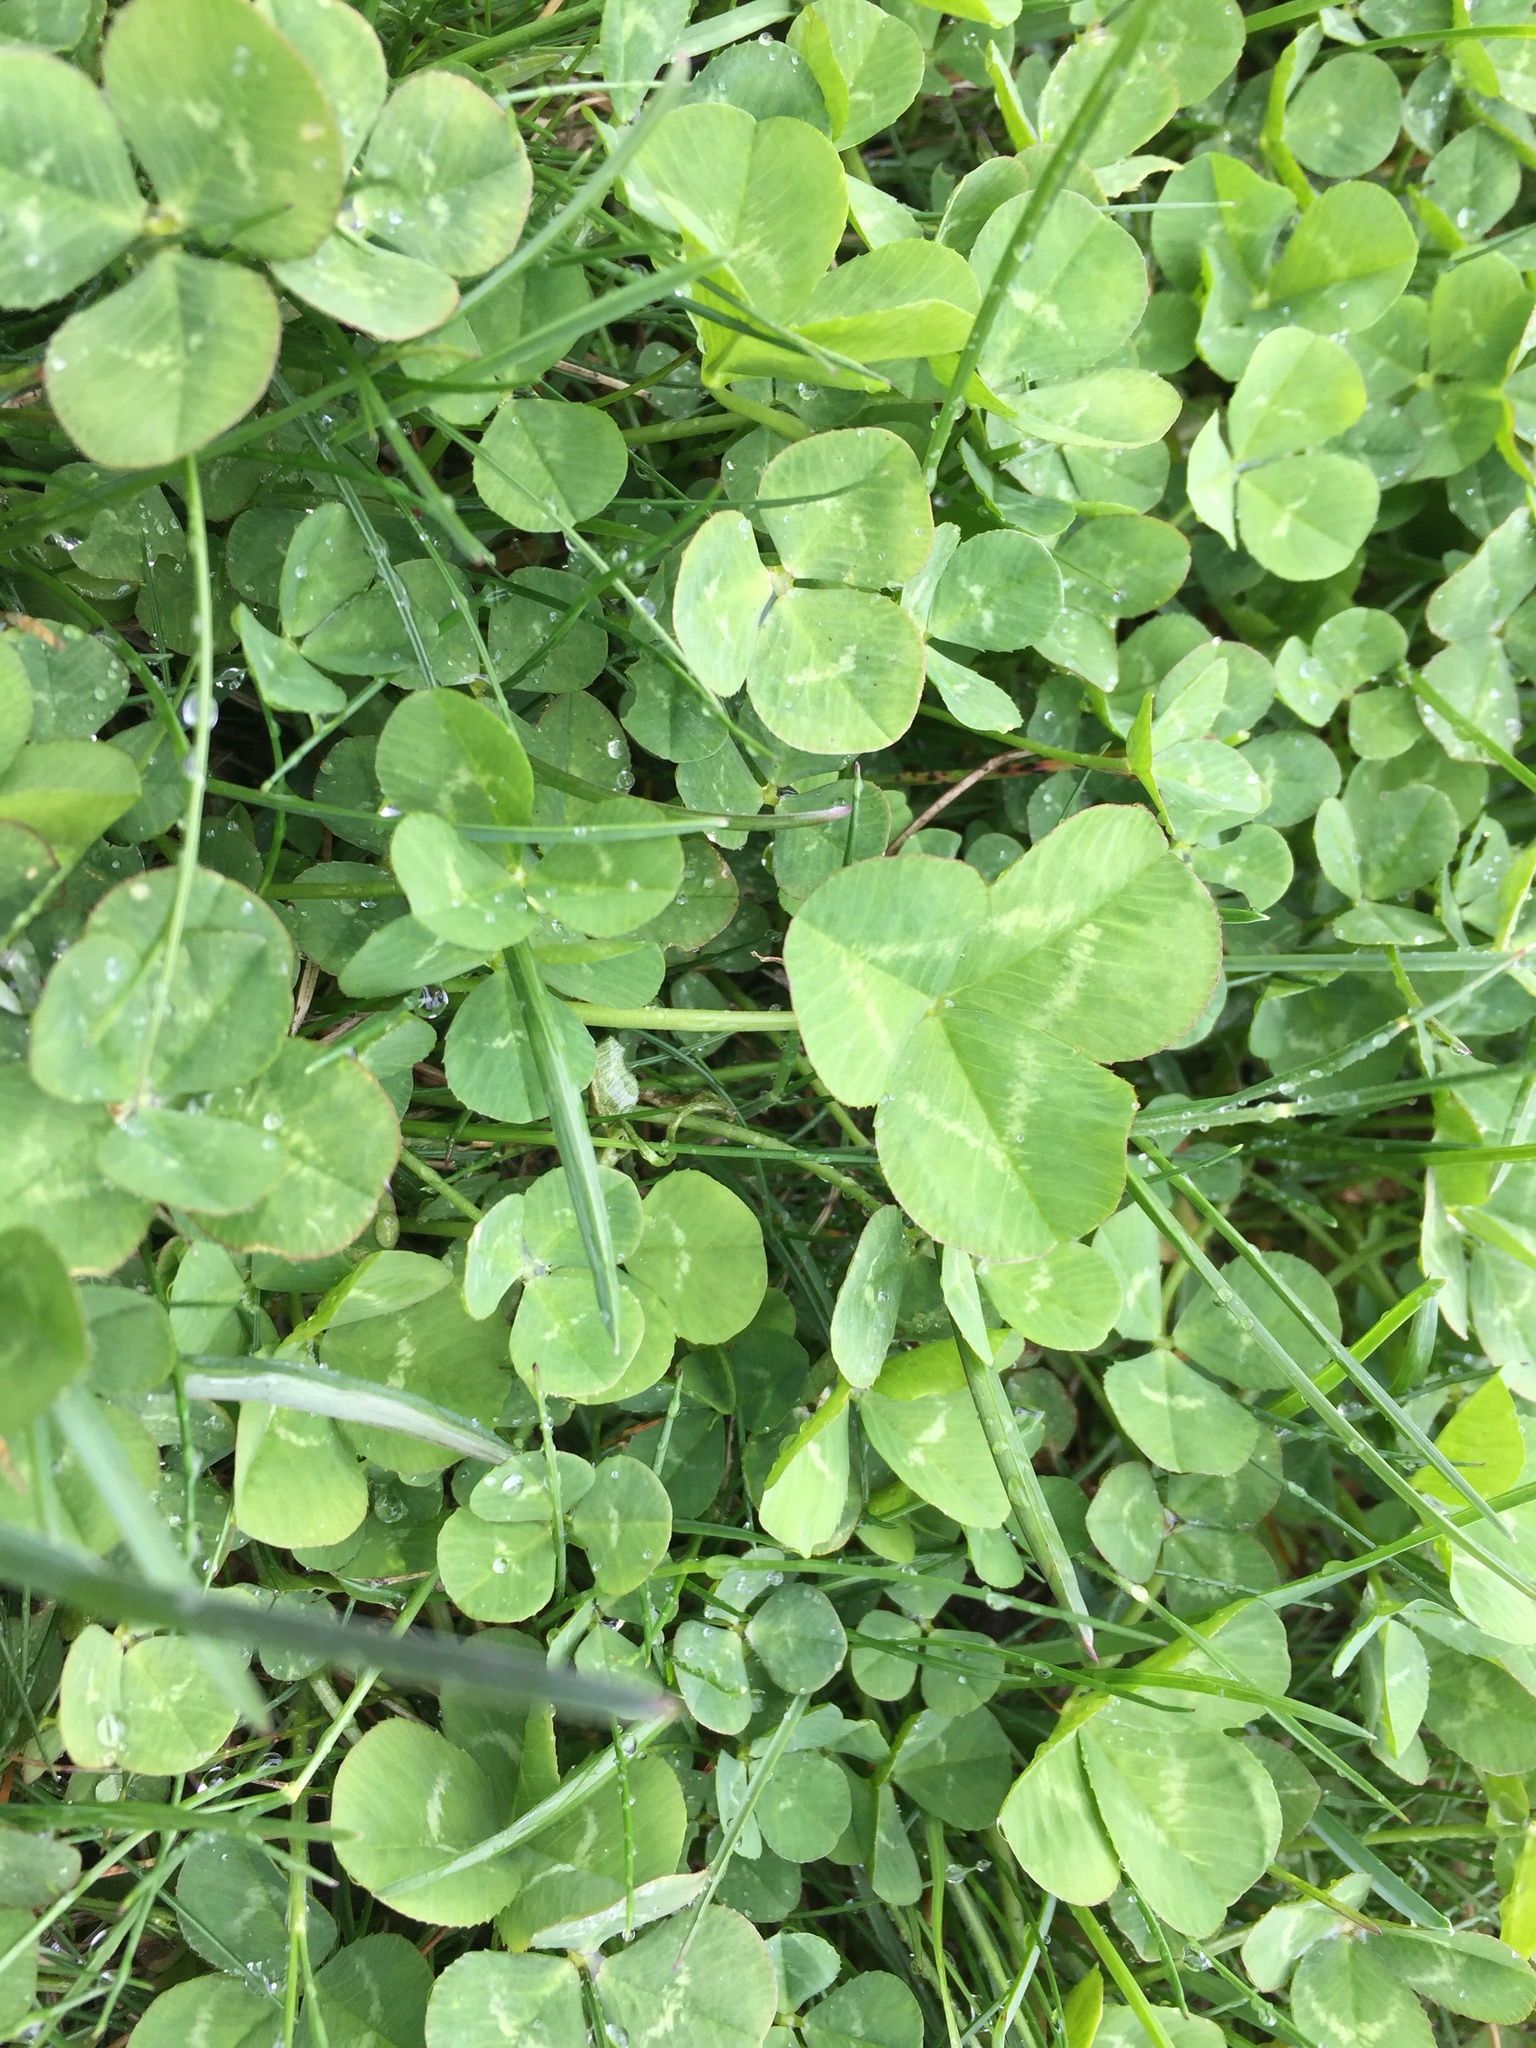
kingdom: Plantae
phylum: Tracheophyta
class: Magnoliopsida
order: Fabales
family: Fabaceae
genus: Trifolium
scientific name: Trifolium repens
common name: White clover
